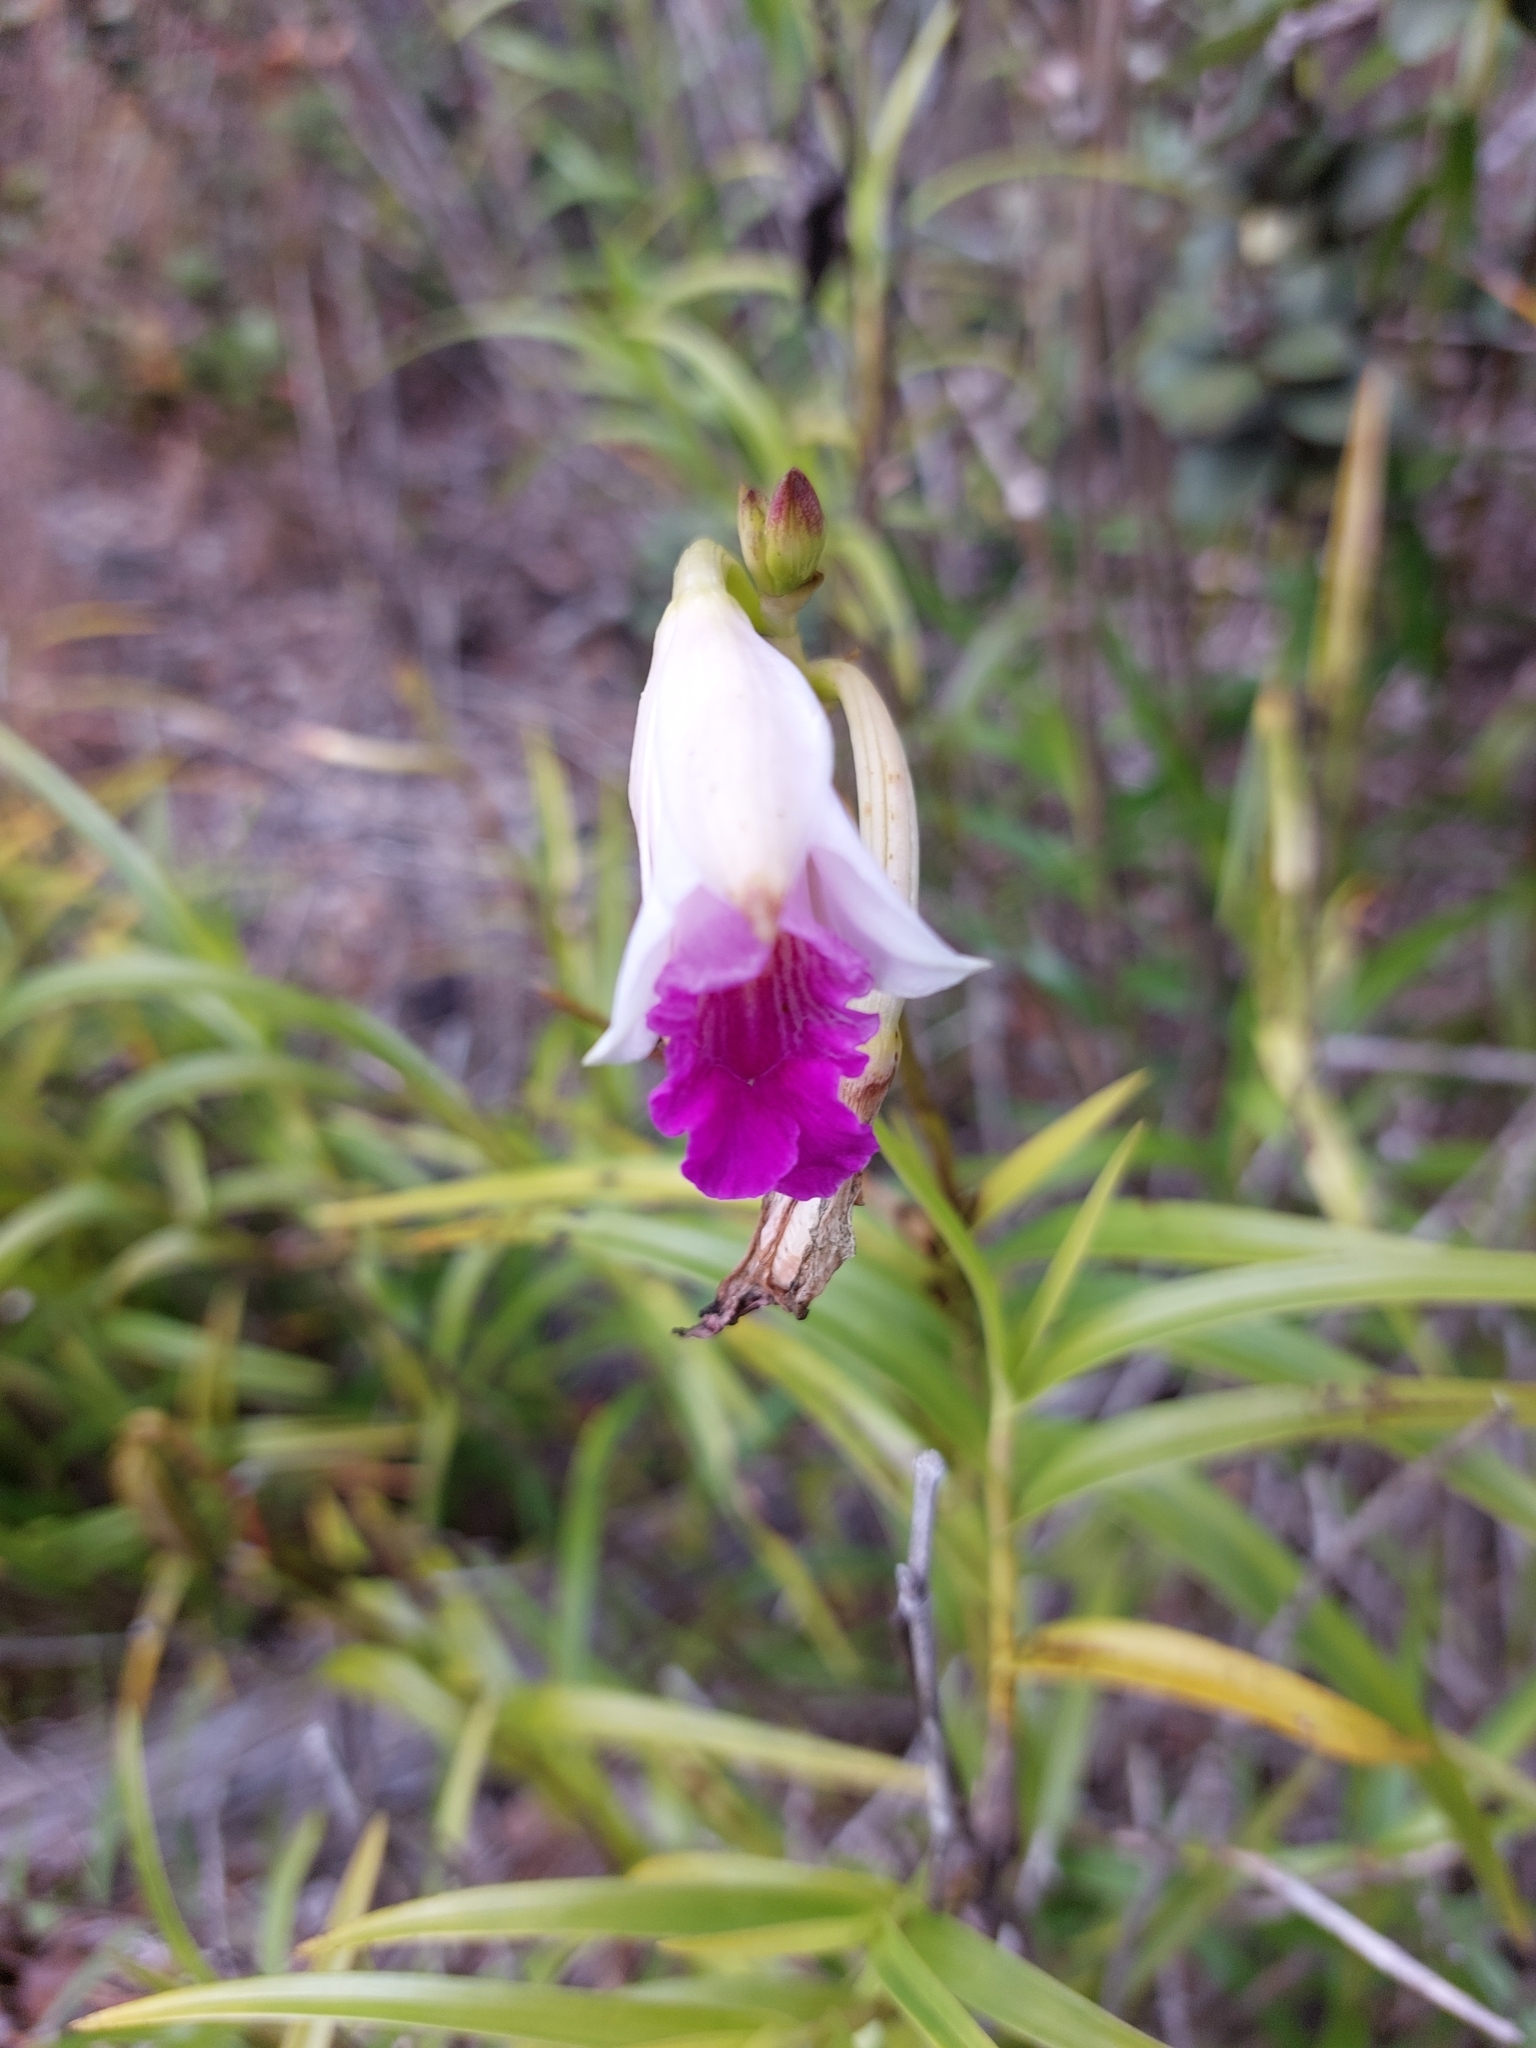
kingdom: Plantae
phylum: Tracheophyta
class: Liliopsida
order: Asparagales
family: Orchidaceae
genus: Arundina
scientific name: Arundina graminifolia
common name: Bamboo orchid
